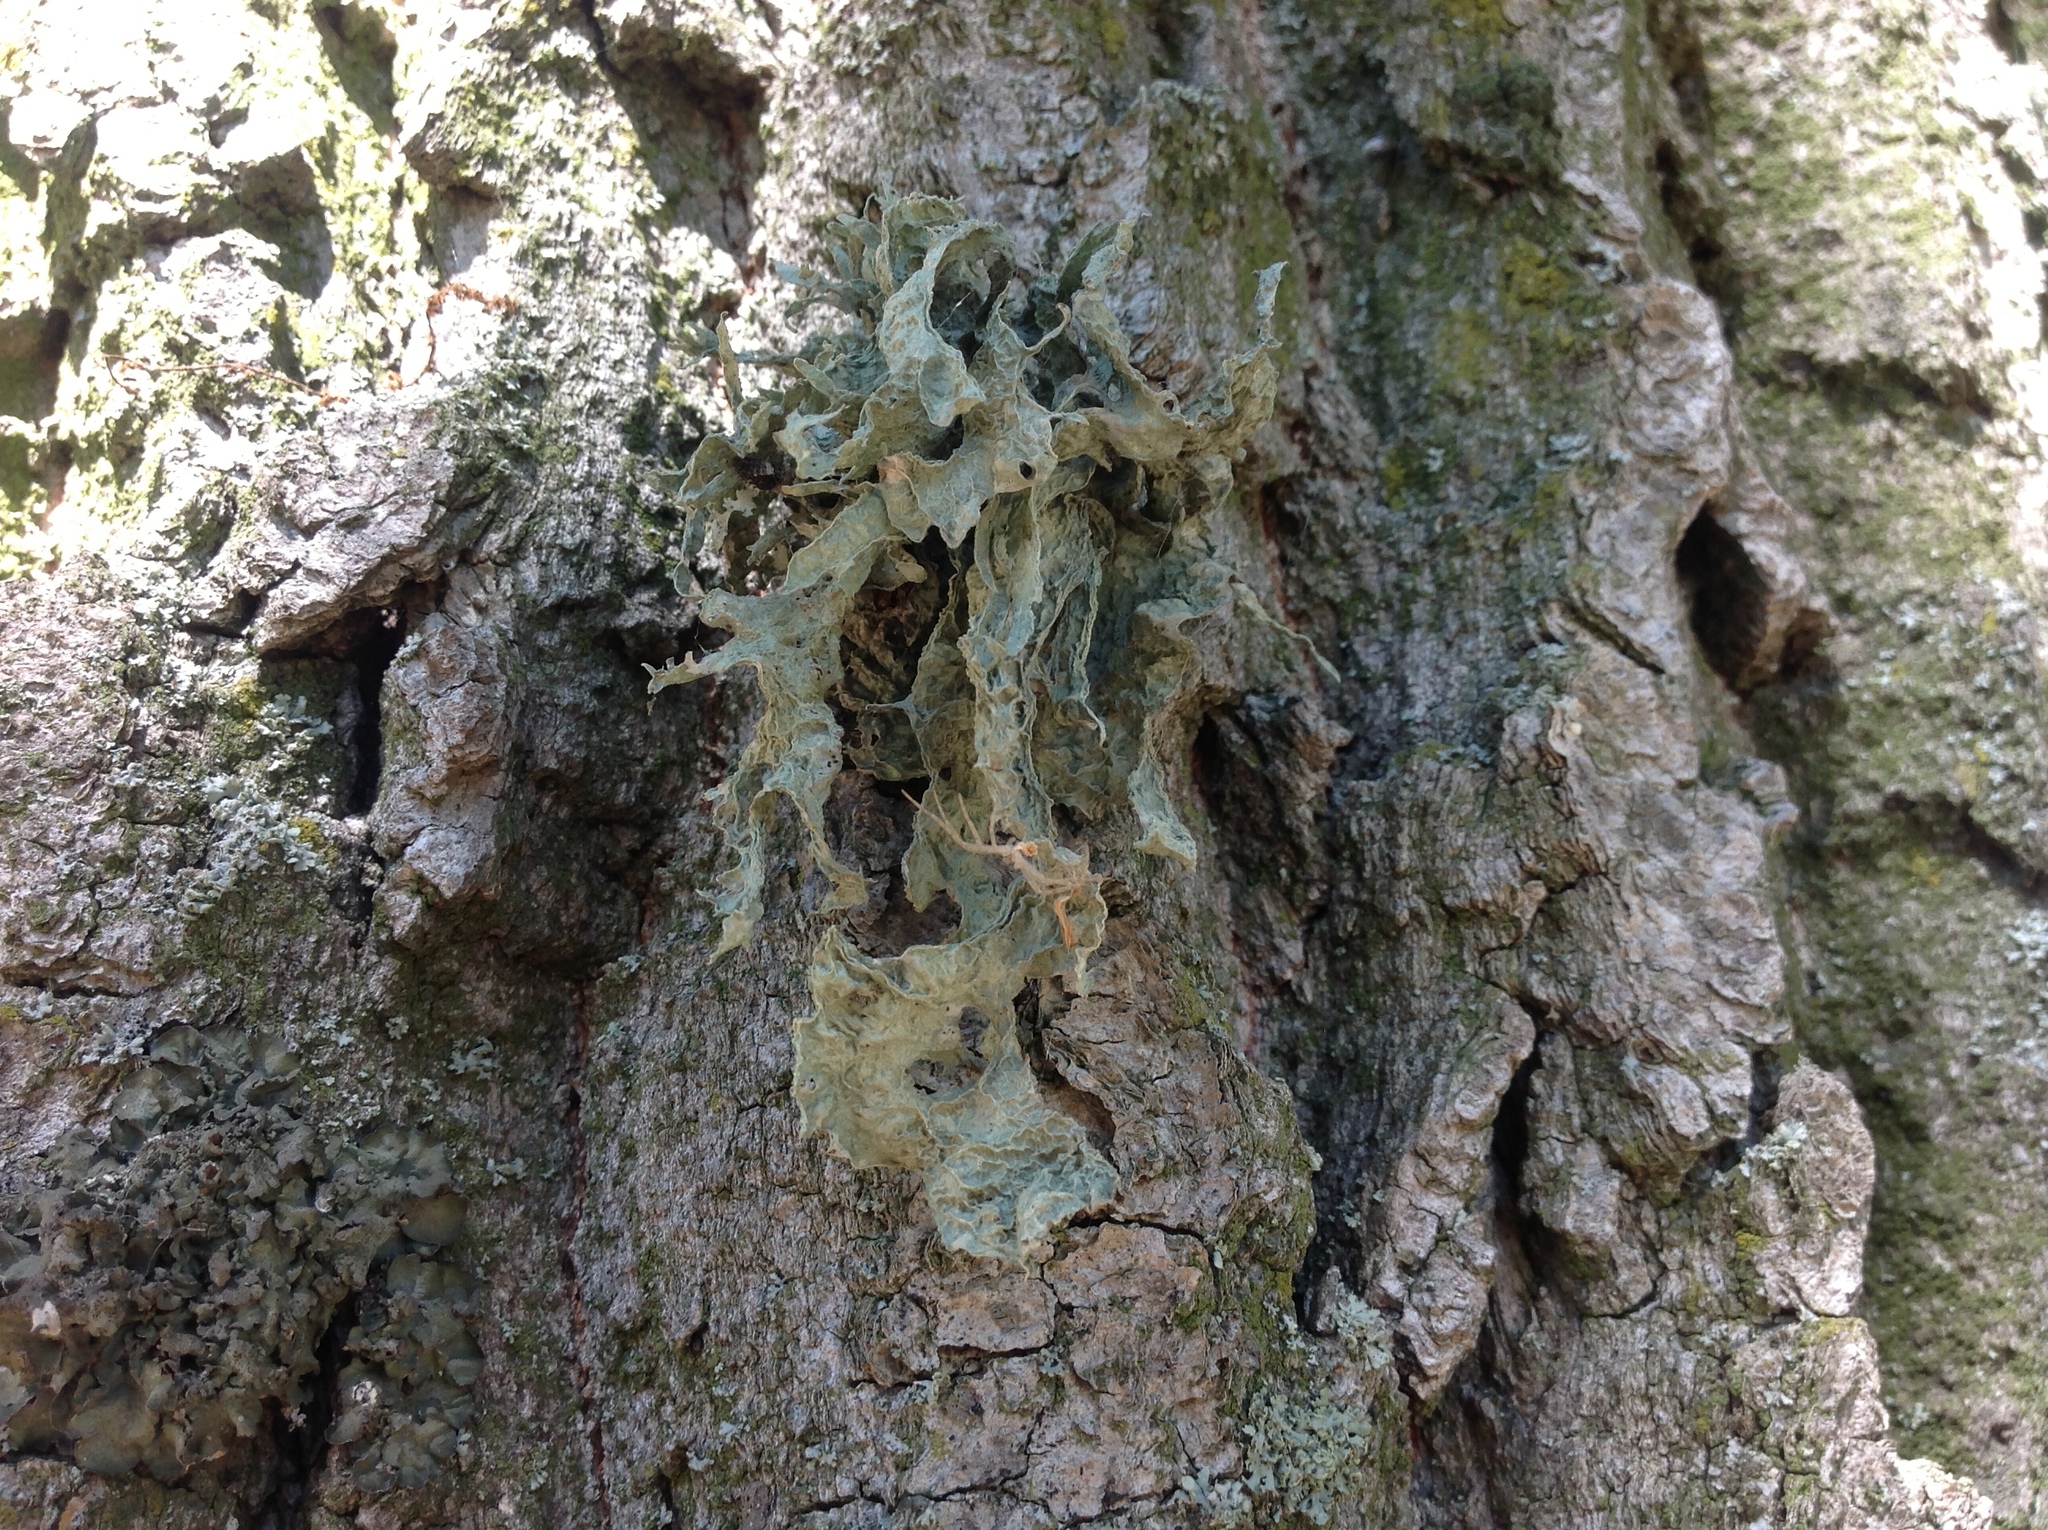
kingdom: Fungi
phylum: Ascomycota
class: Lecanoromycetes
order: Lecanorales
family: Ramalinaceae
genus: Ramalina
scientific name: Ramalina fraxinea
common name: Cartilage lichen
